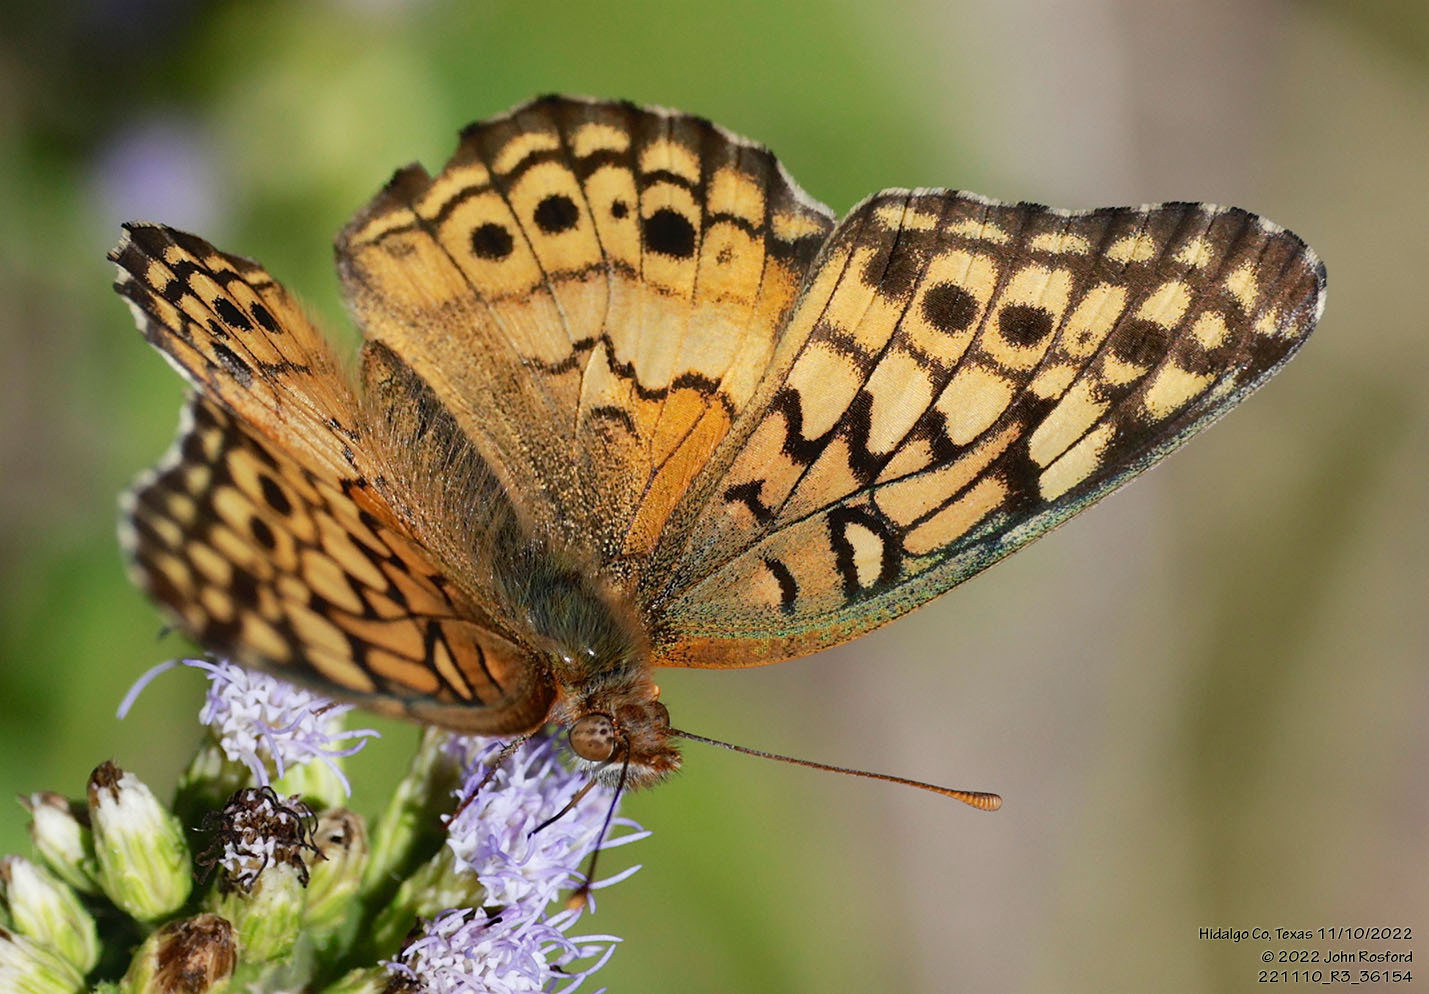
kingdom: Animalia
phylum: Arthropoda
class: Insecta
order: Lepidoptera
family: Nymphalidae
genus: Euptoieta
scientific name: Euptoieta claudia
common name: Variegated fritillary
